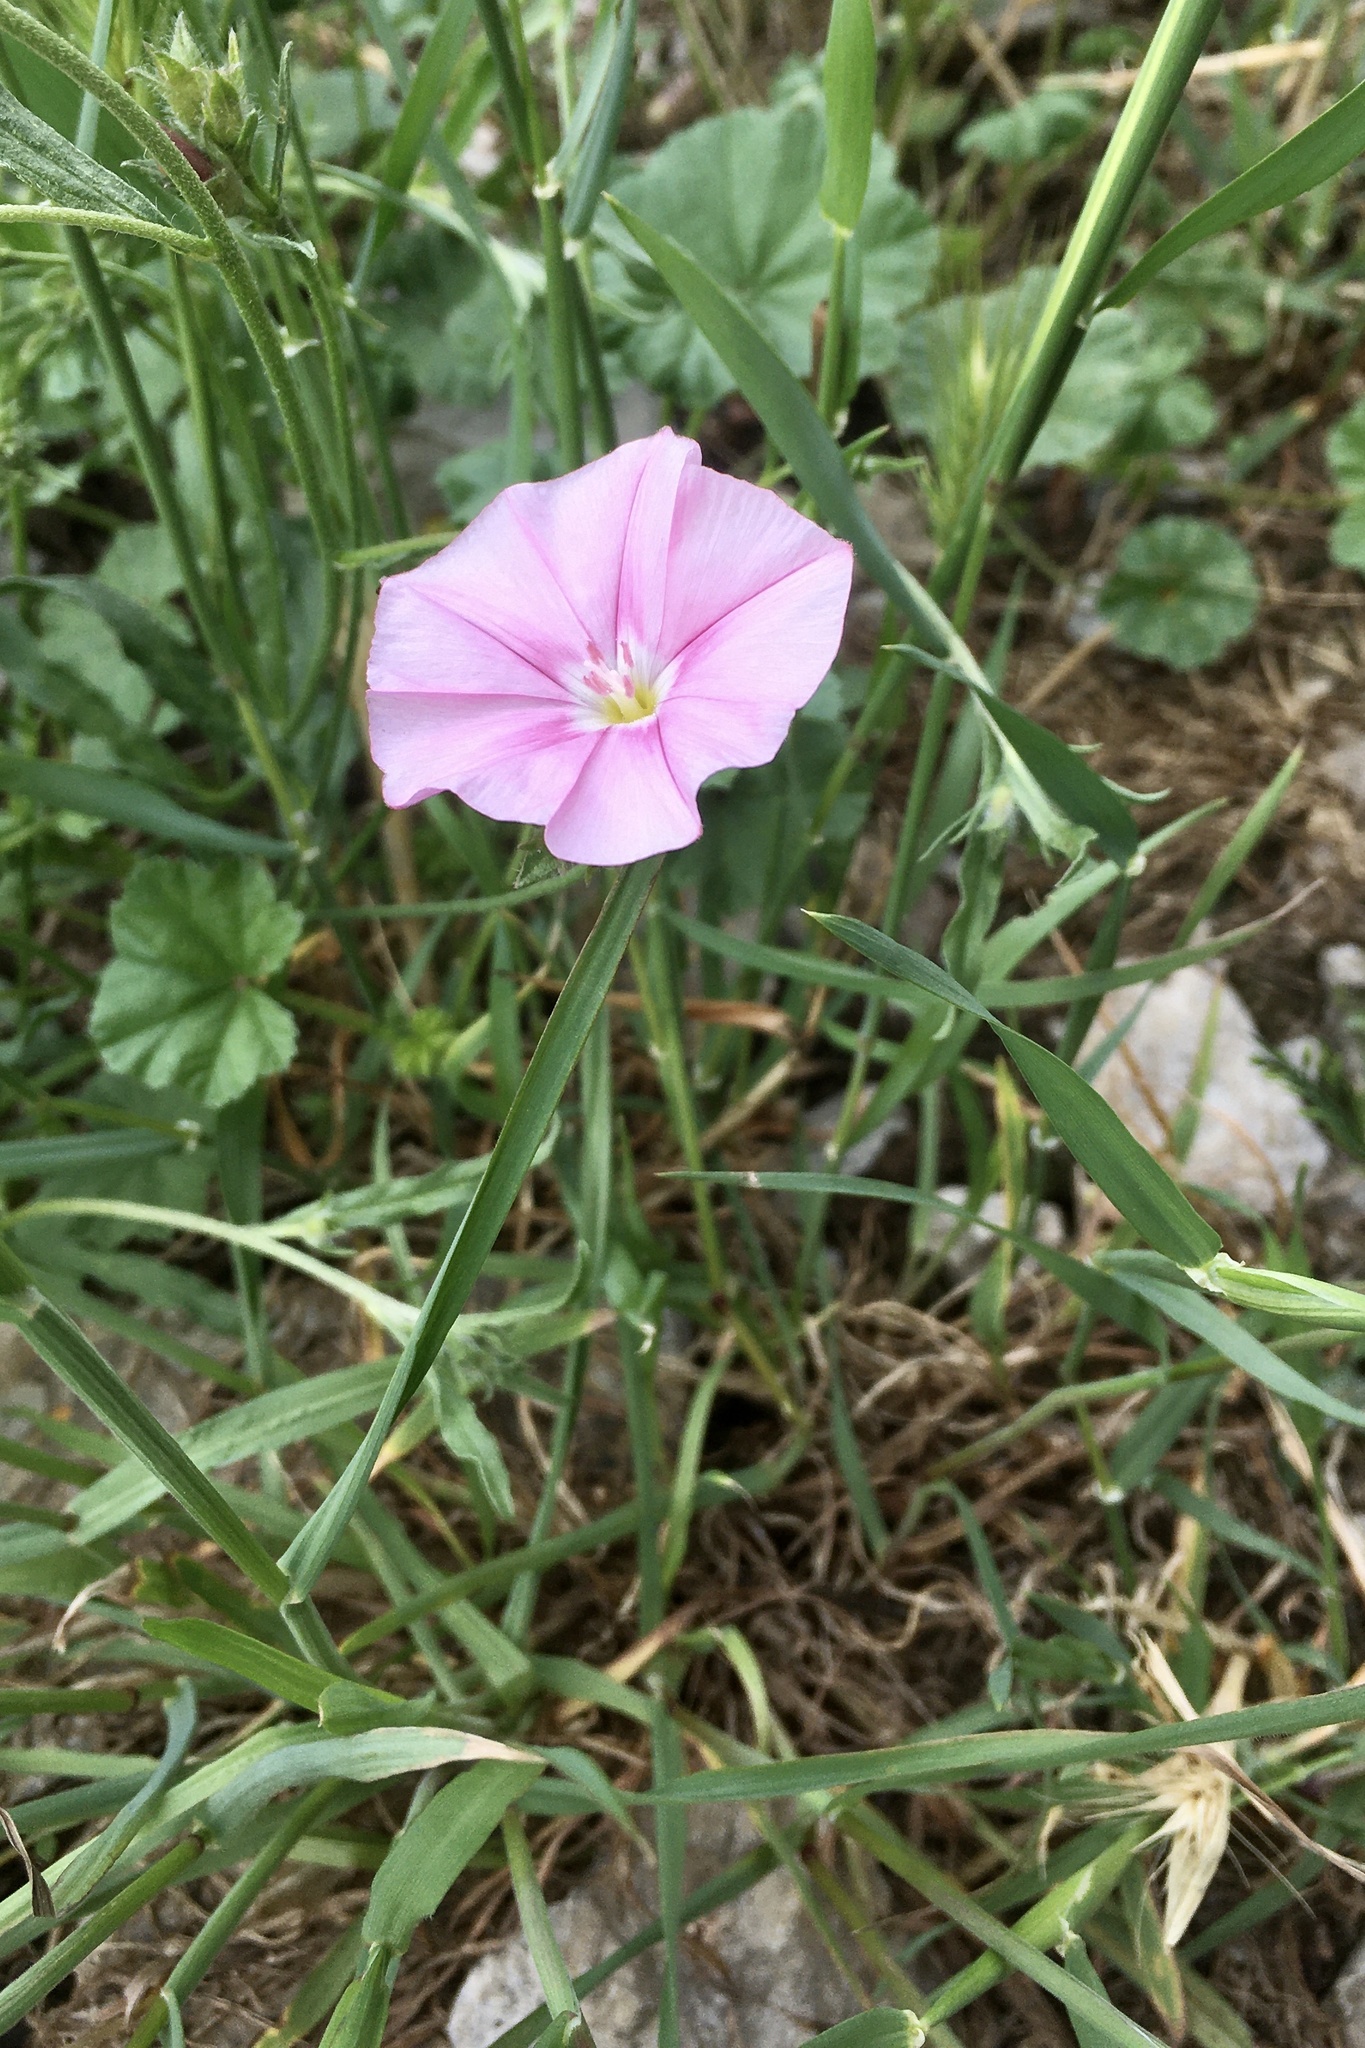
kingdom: Plantae
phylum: Tracheophyta
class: Magnoliopsida
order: Solanales
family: Convolvulaceae
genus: Convolvulus
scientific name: Convolvulus cantabrica
